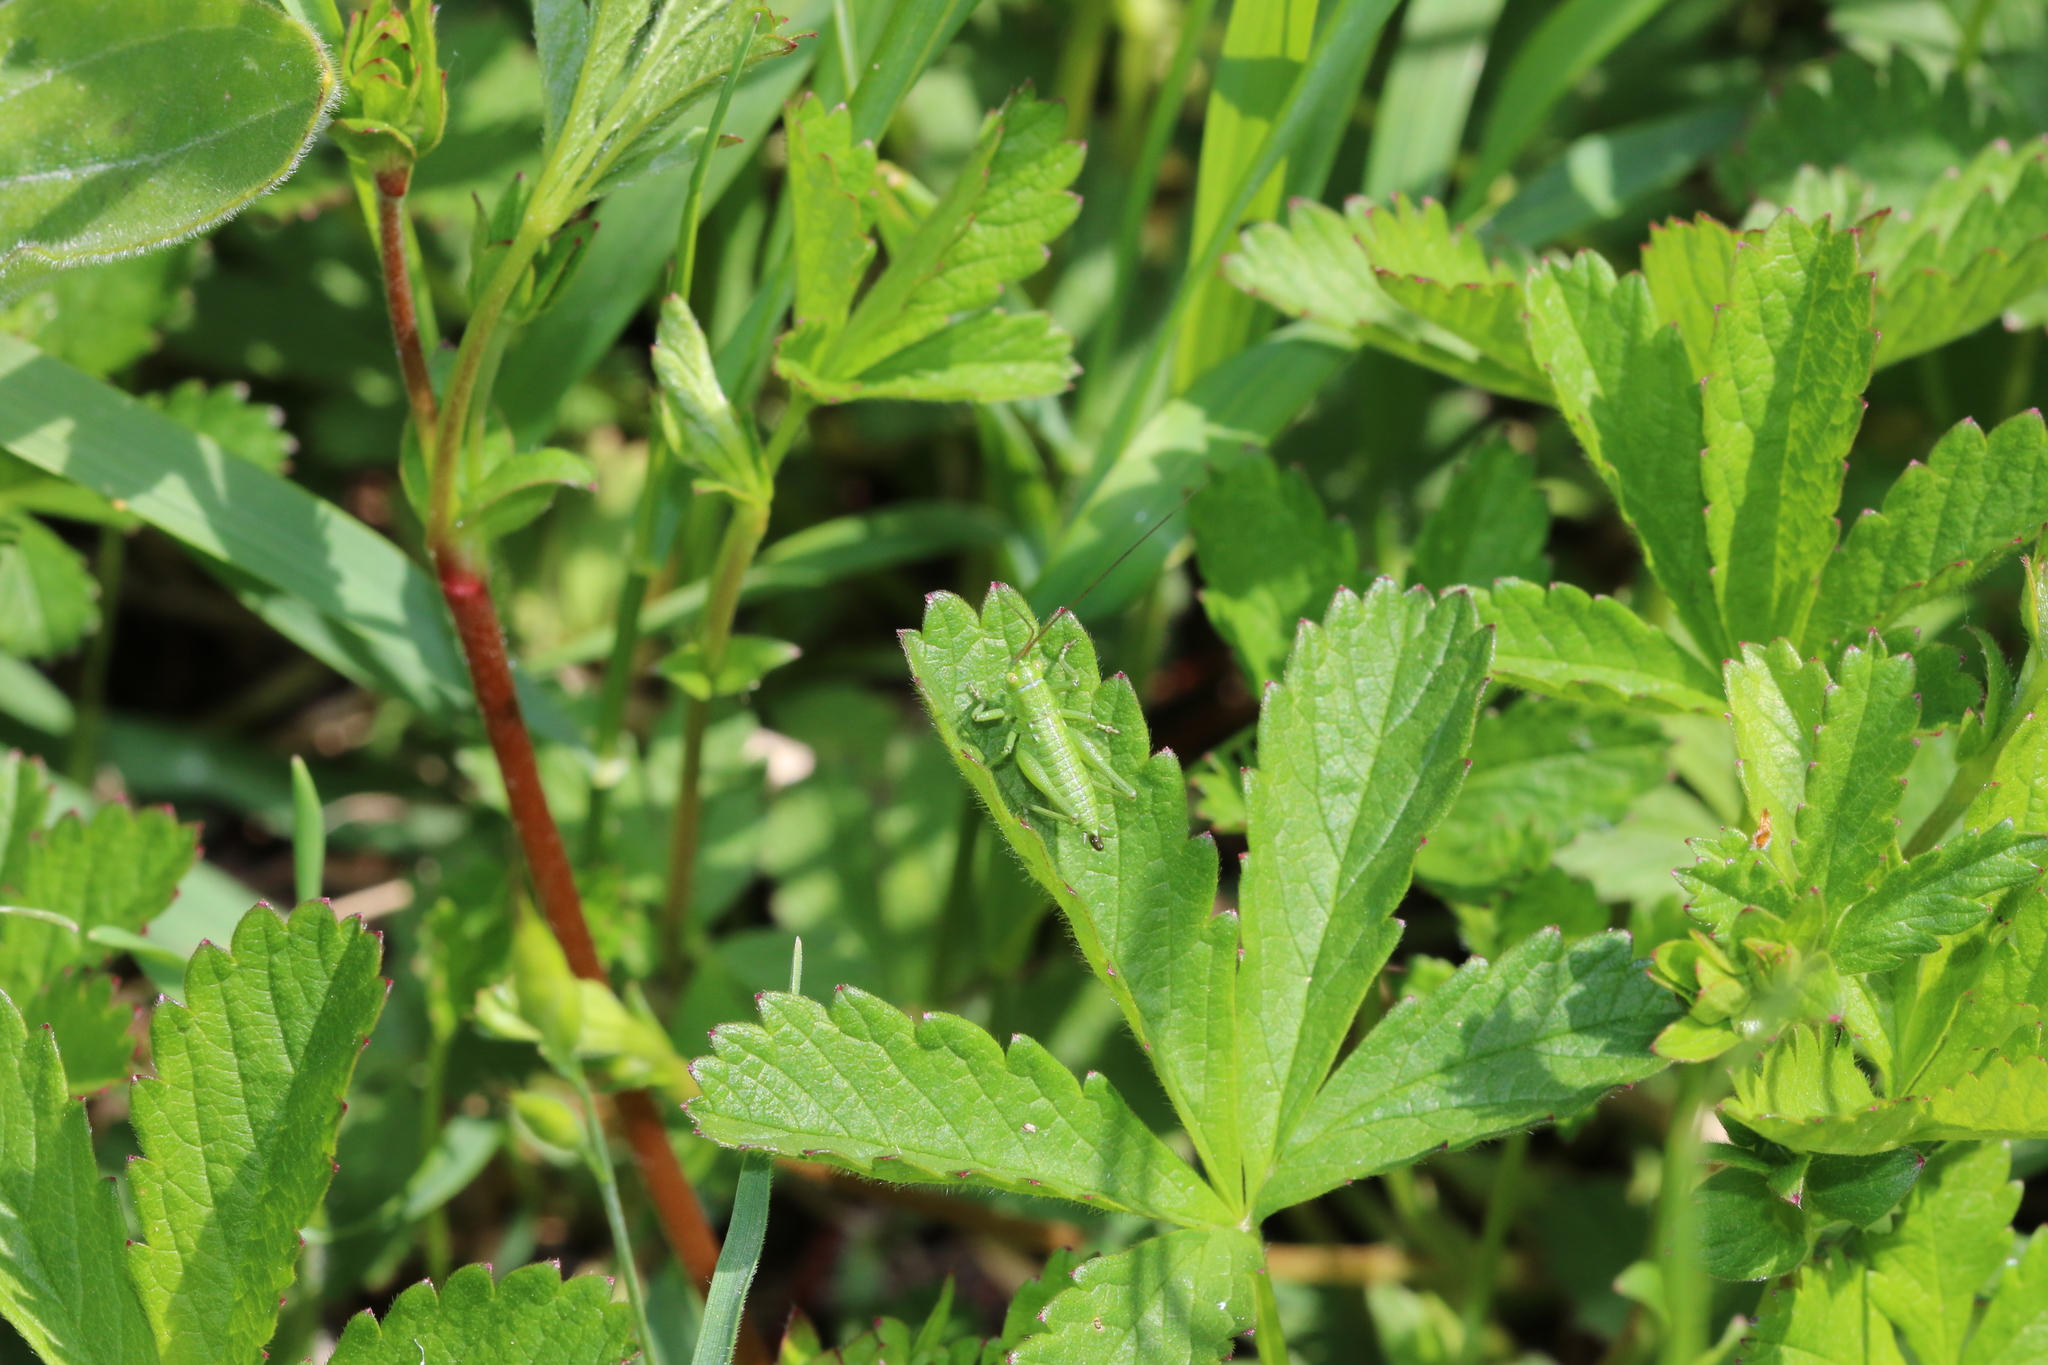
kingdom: Animalia
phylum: Arthropoda
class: Insecta
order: Orthoptera
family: Tettigoniidae
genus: Tettigonia
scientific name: Tettigonia viridissima
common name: Great green bush-cricket
